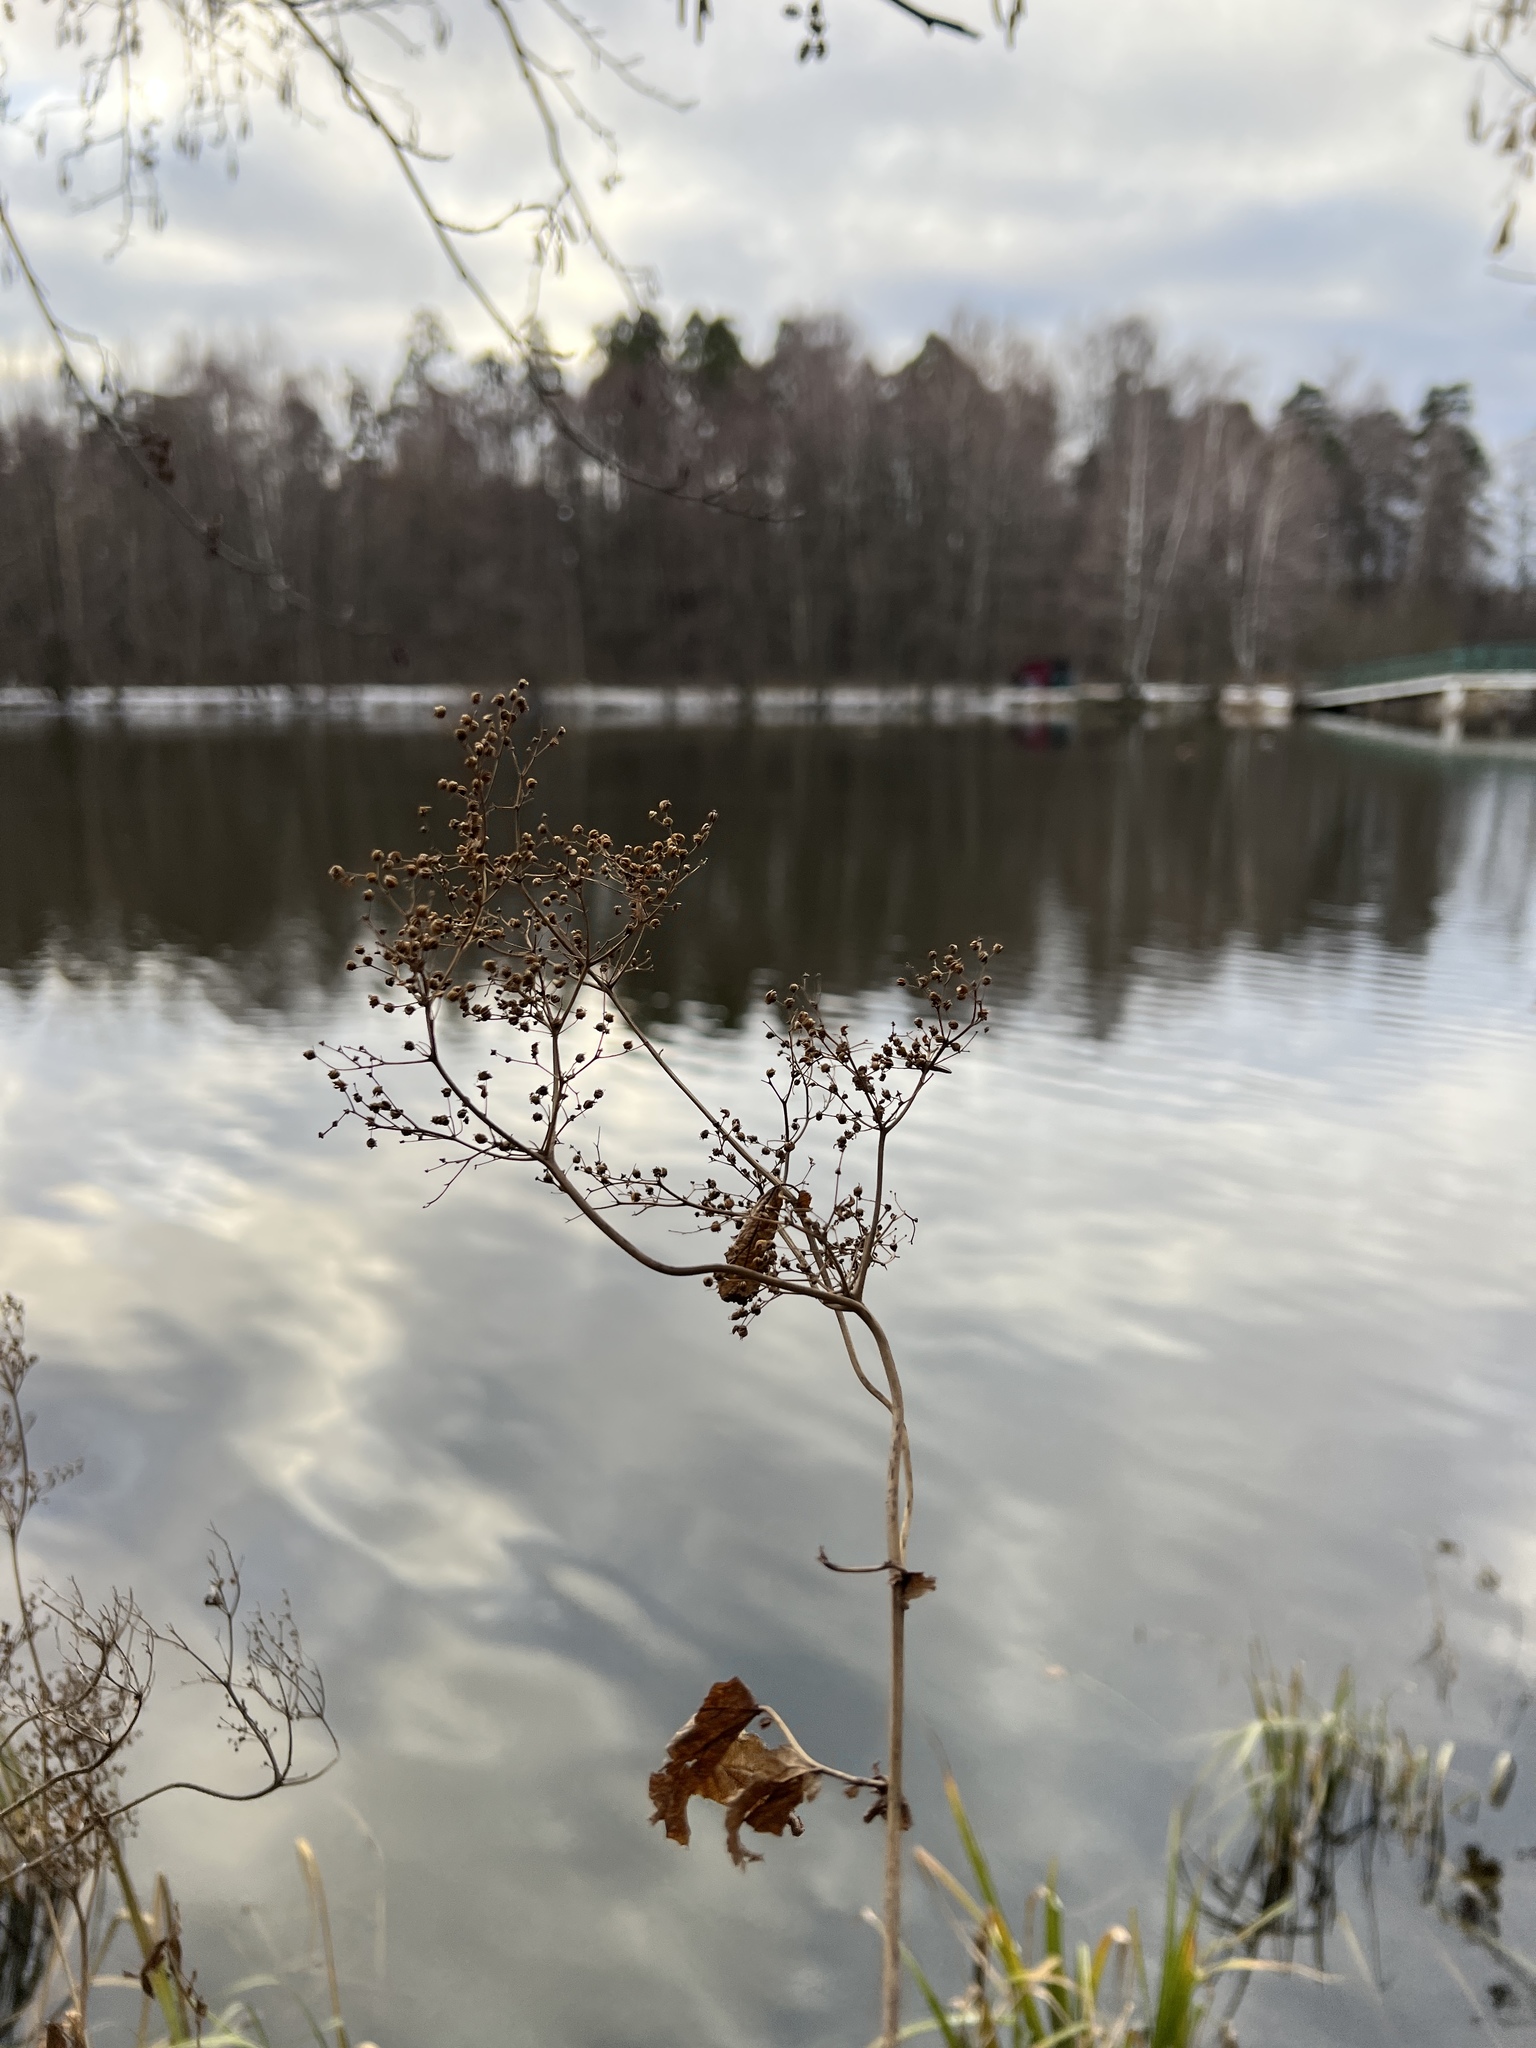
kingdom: Plantae
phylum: Tracheophyta
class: Magnoliopsida
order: Rosales
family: Rosaceae
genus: Filipendula
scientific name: Filipendula ulmaria
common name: Meadowsweet
